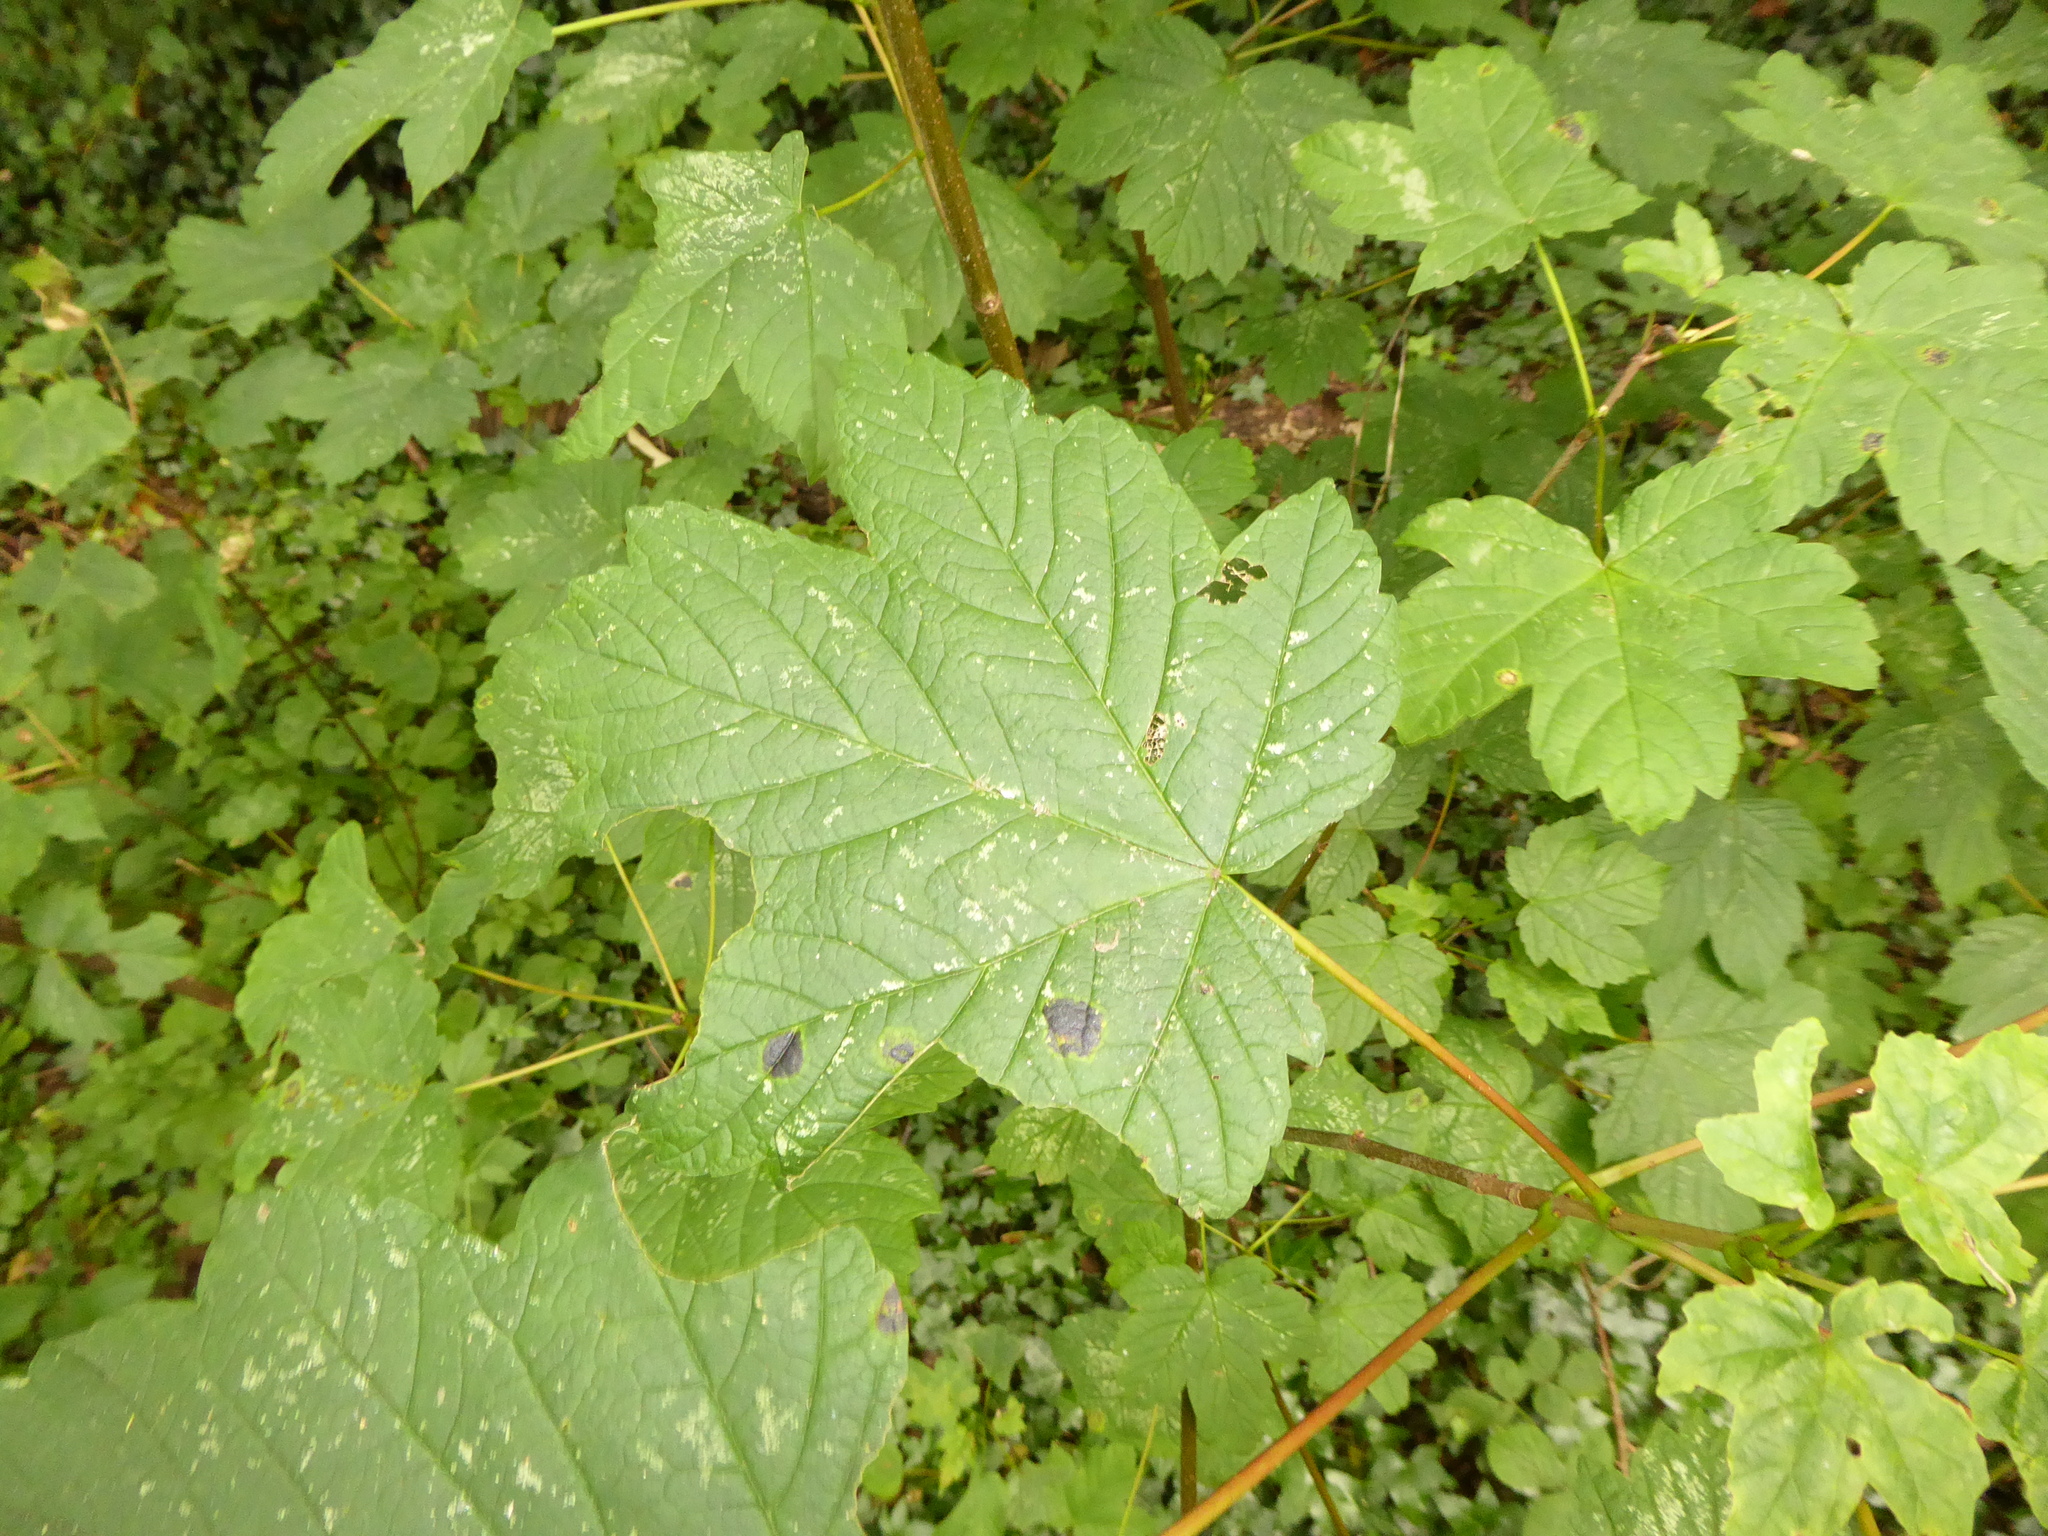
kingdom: Plantae
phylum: Tracheophyta
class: Magnoliopsida
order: Sapindales
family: Sapindaceae
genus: Acer
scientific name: Acer pseudoplatanus
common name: Sycamore
